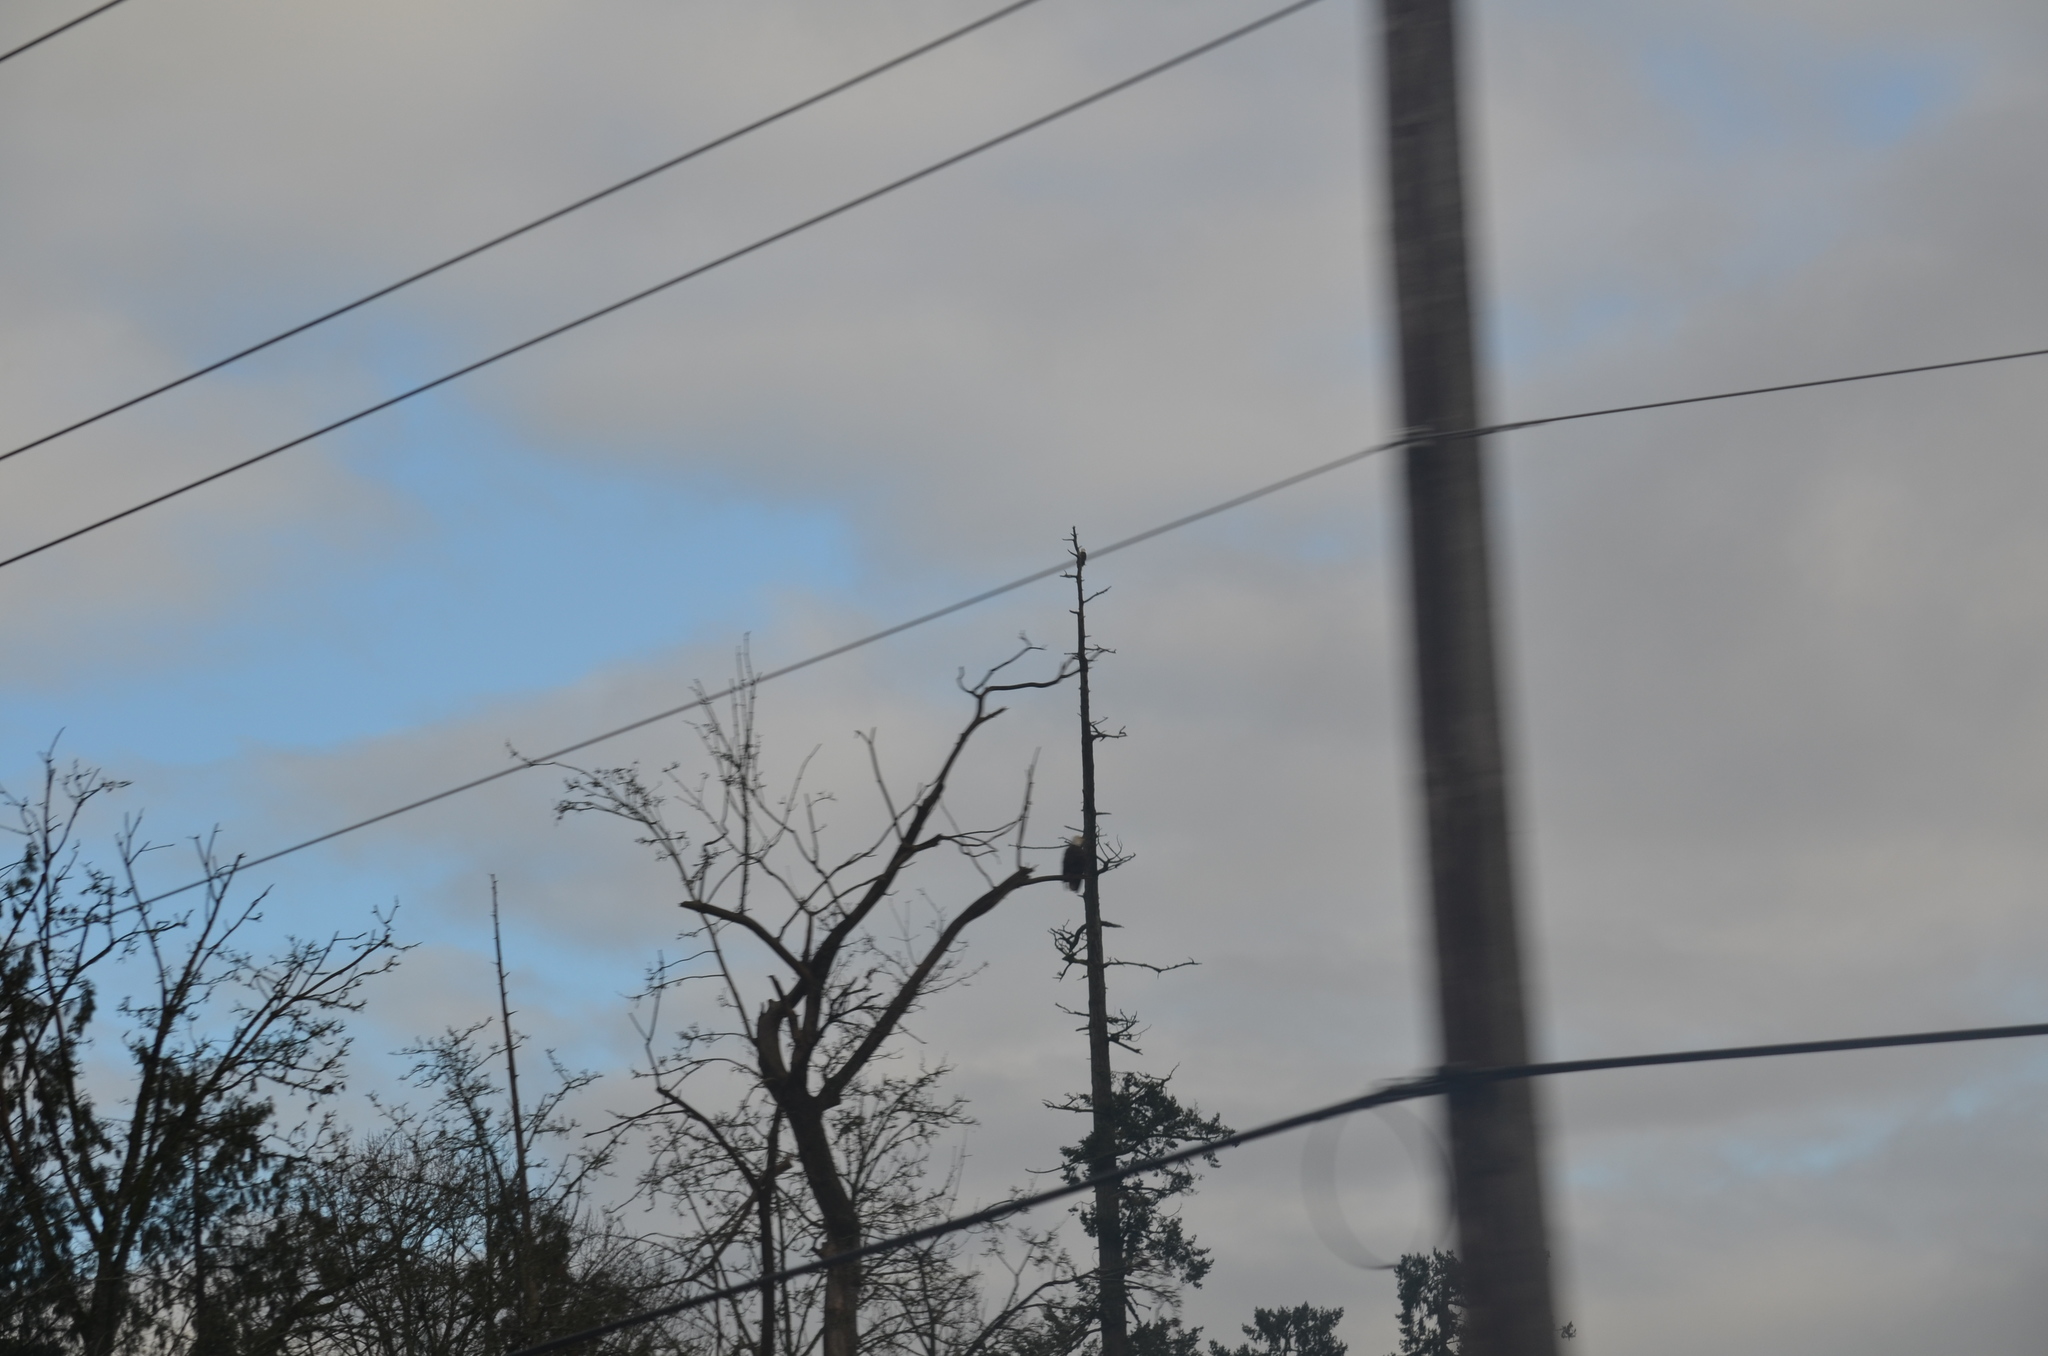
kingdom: Animalia
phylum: Chordata
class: Aves
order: Accipitriformes
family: Accipitridae
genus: Haliaeetus
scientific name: Haliaeetus leucocephalus
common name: Bald eagle
